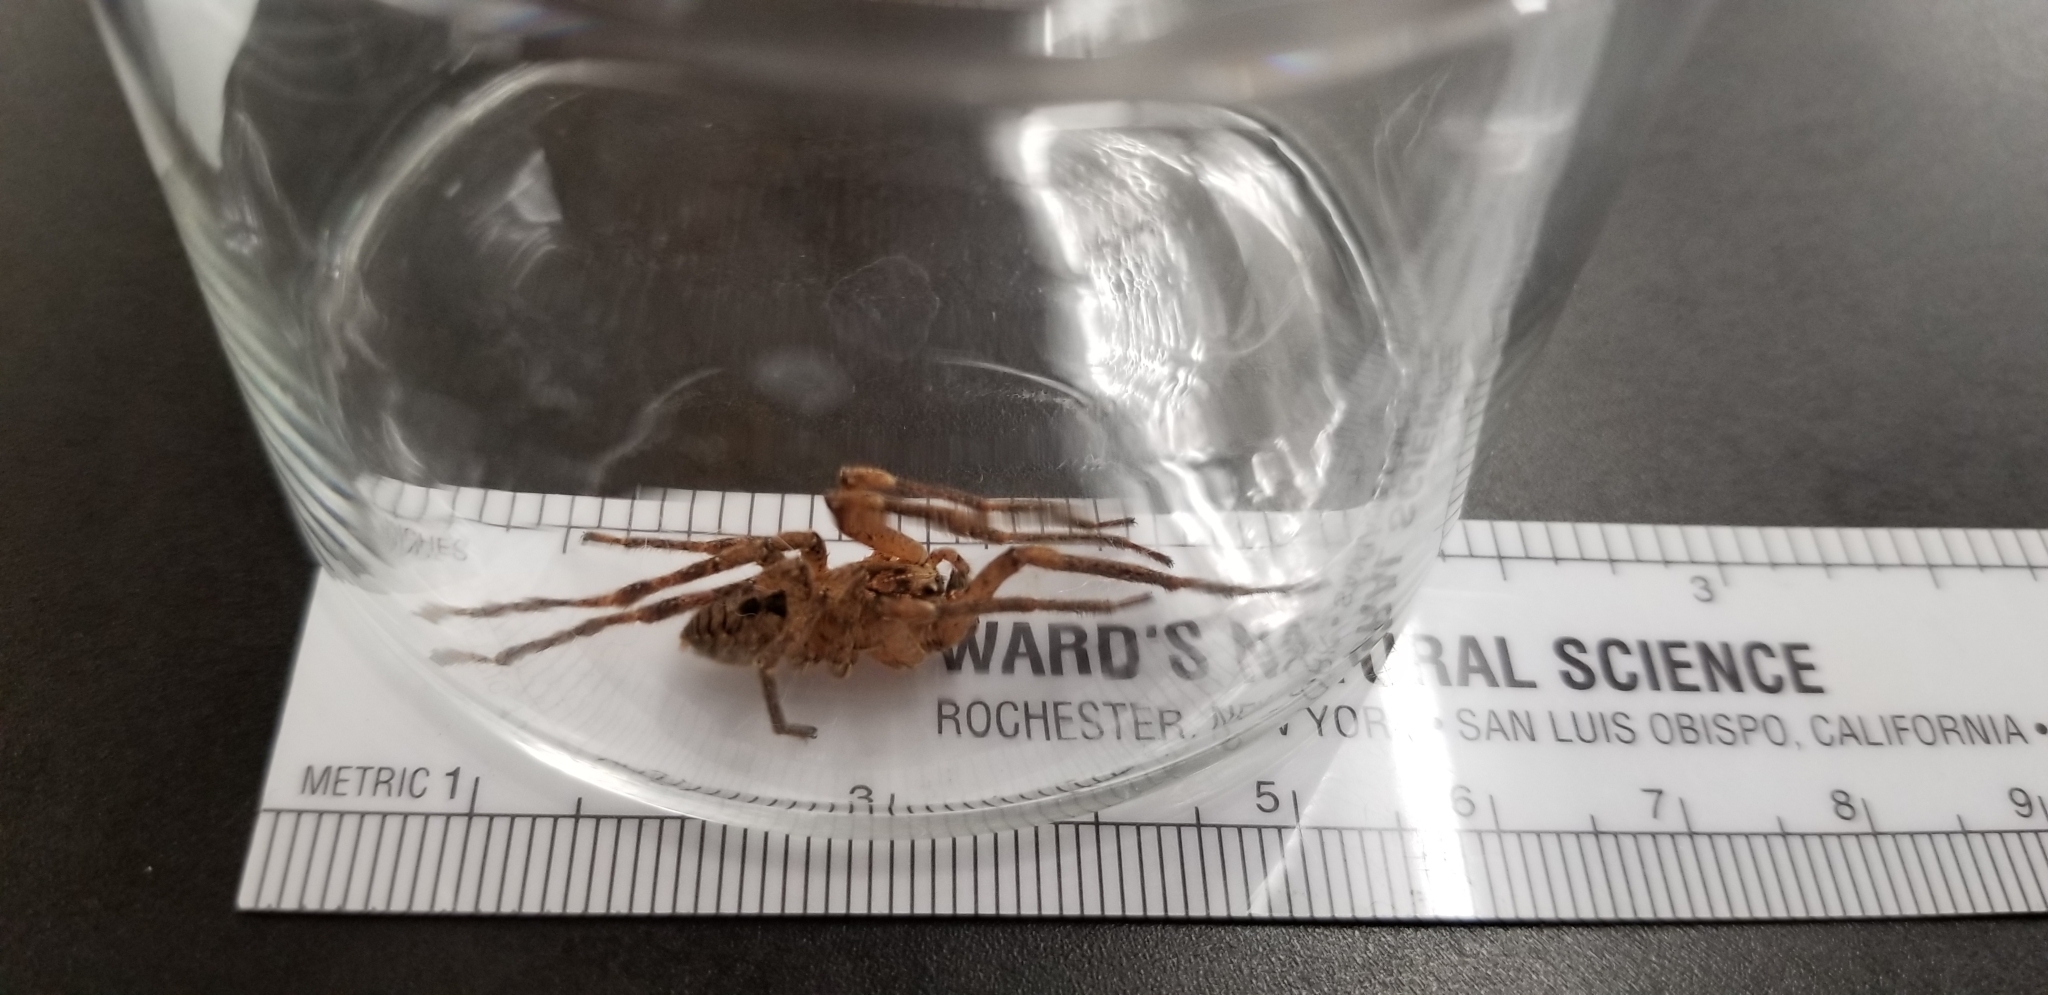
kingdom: Animalia
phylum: Arthropoda
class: Arachnida
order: Araneae
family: Zoropsidae
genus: Zoropsis
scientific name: Zoropsis spinimana
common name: Zoropsid spider
